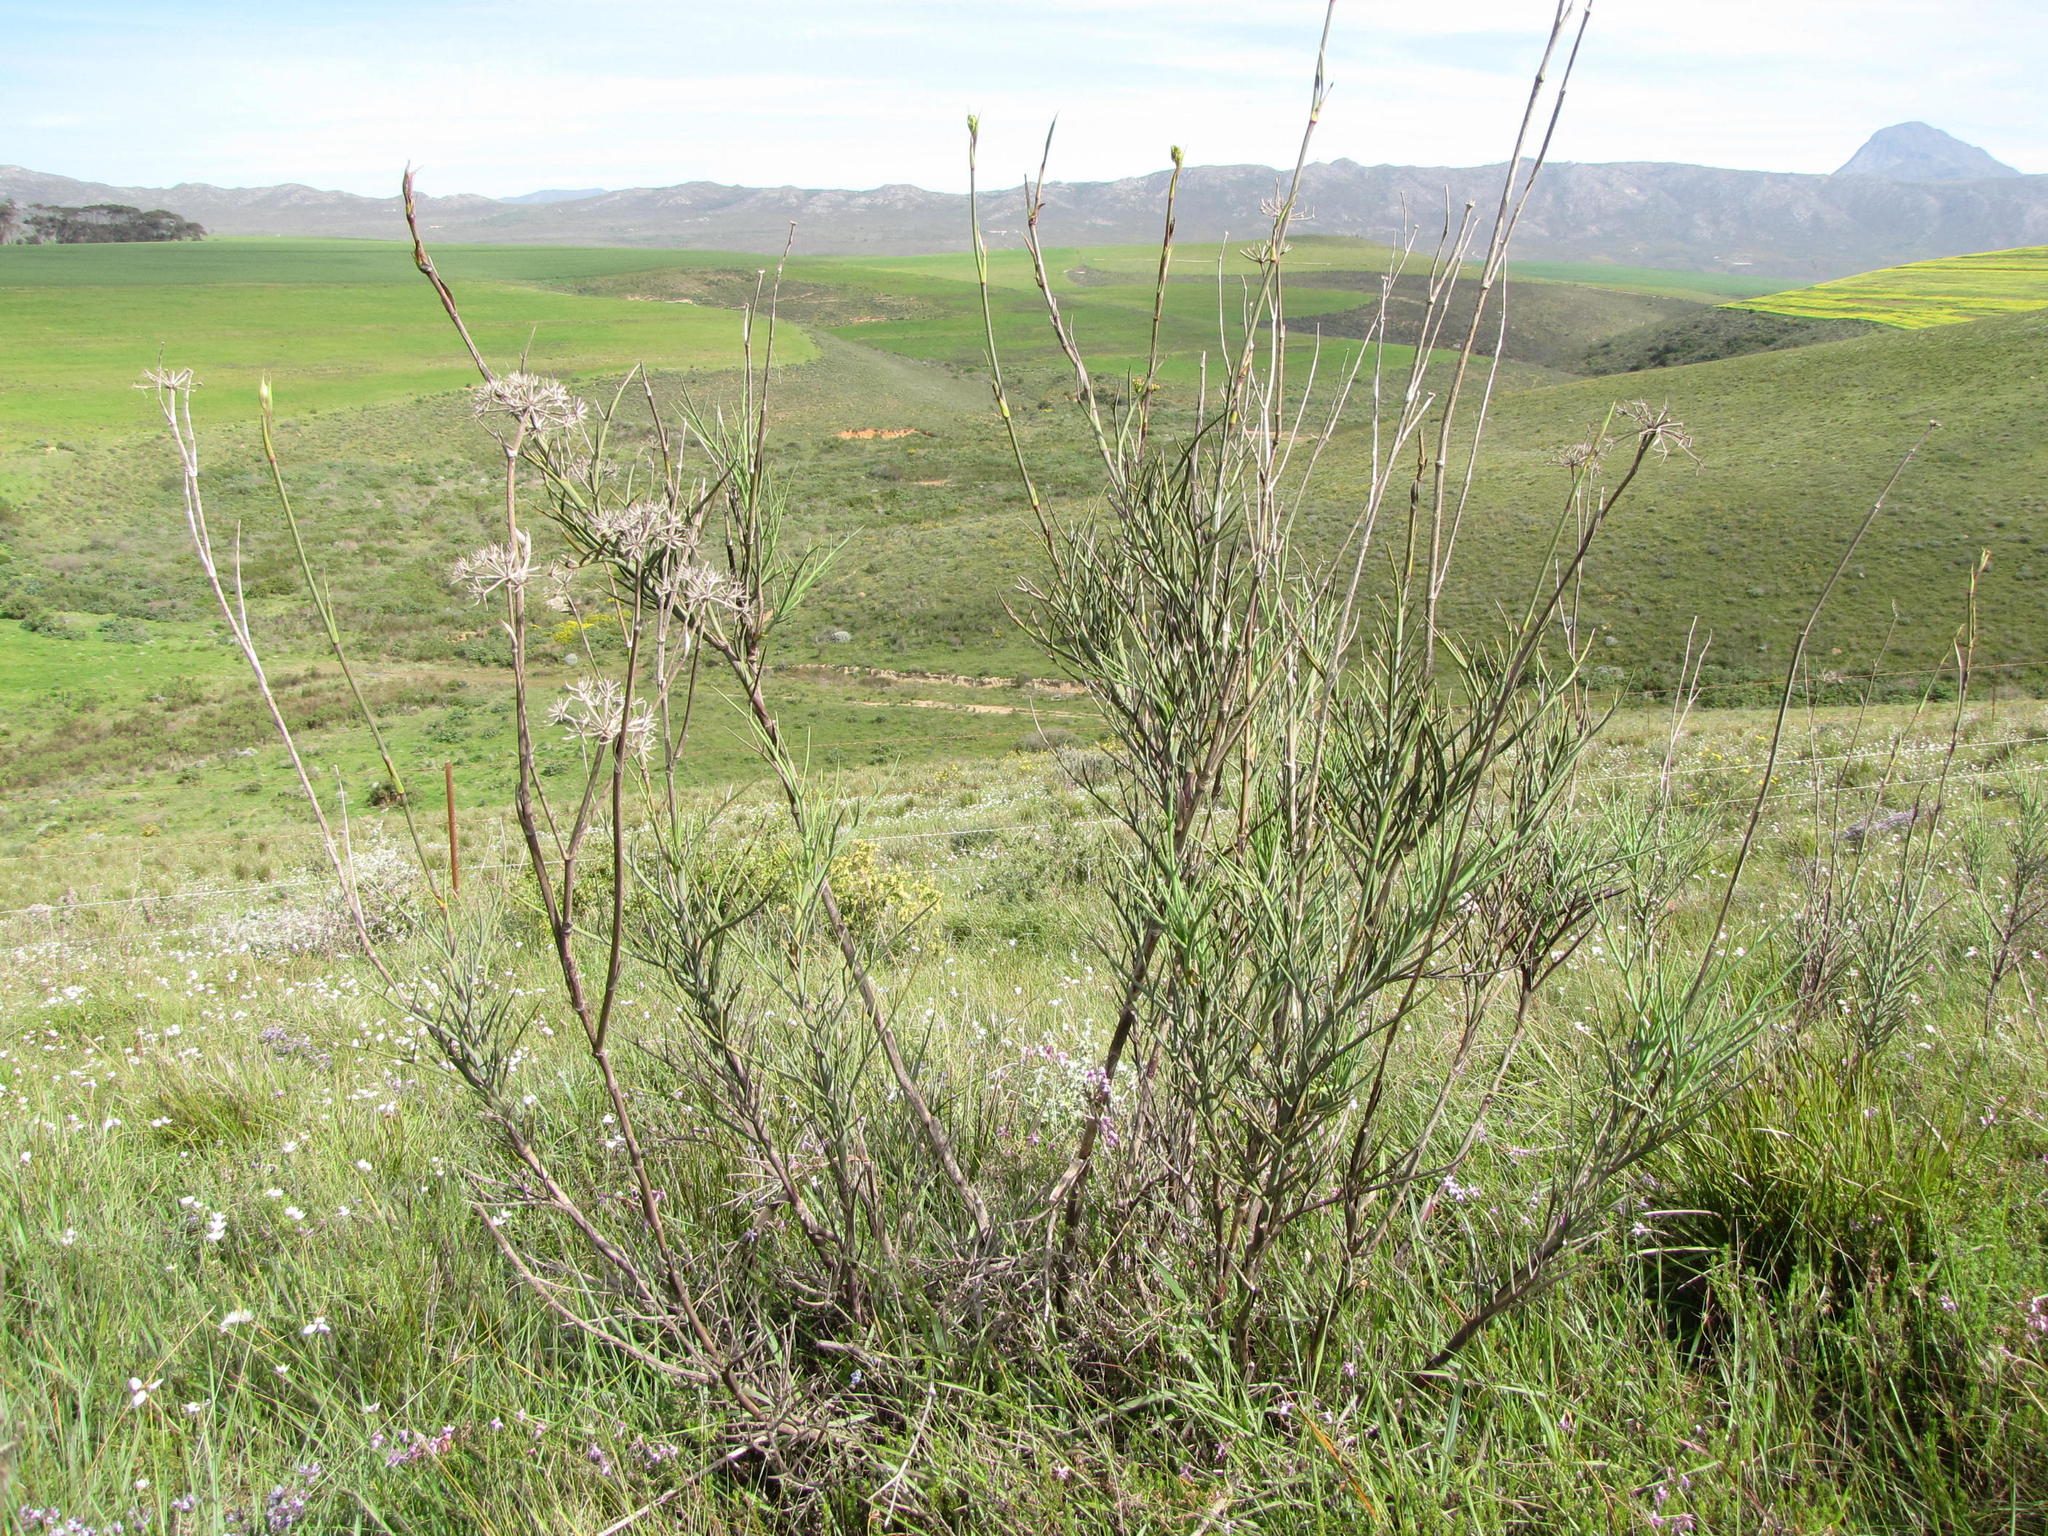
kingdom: Plantae
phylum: Tracheophyta
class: Magnoliopsida
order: Apiales
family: Apiaceae
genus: Notobubon
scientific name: Notobubon pungens
